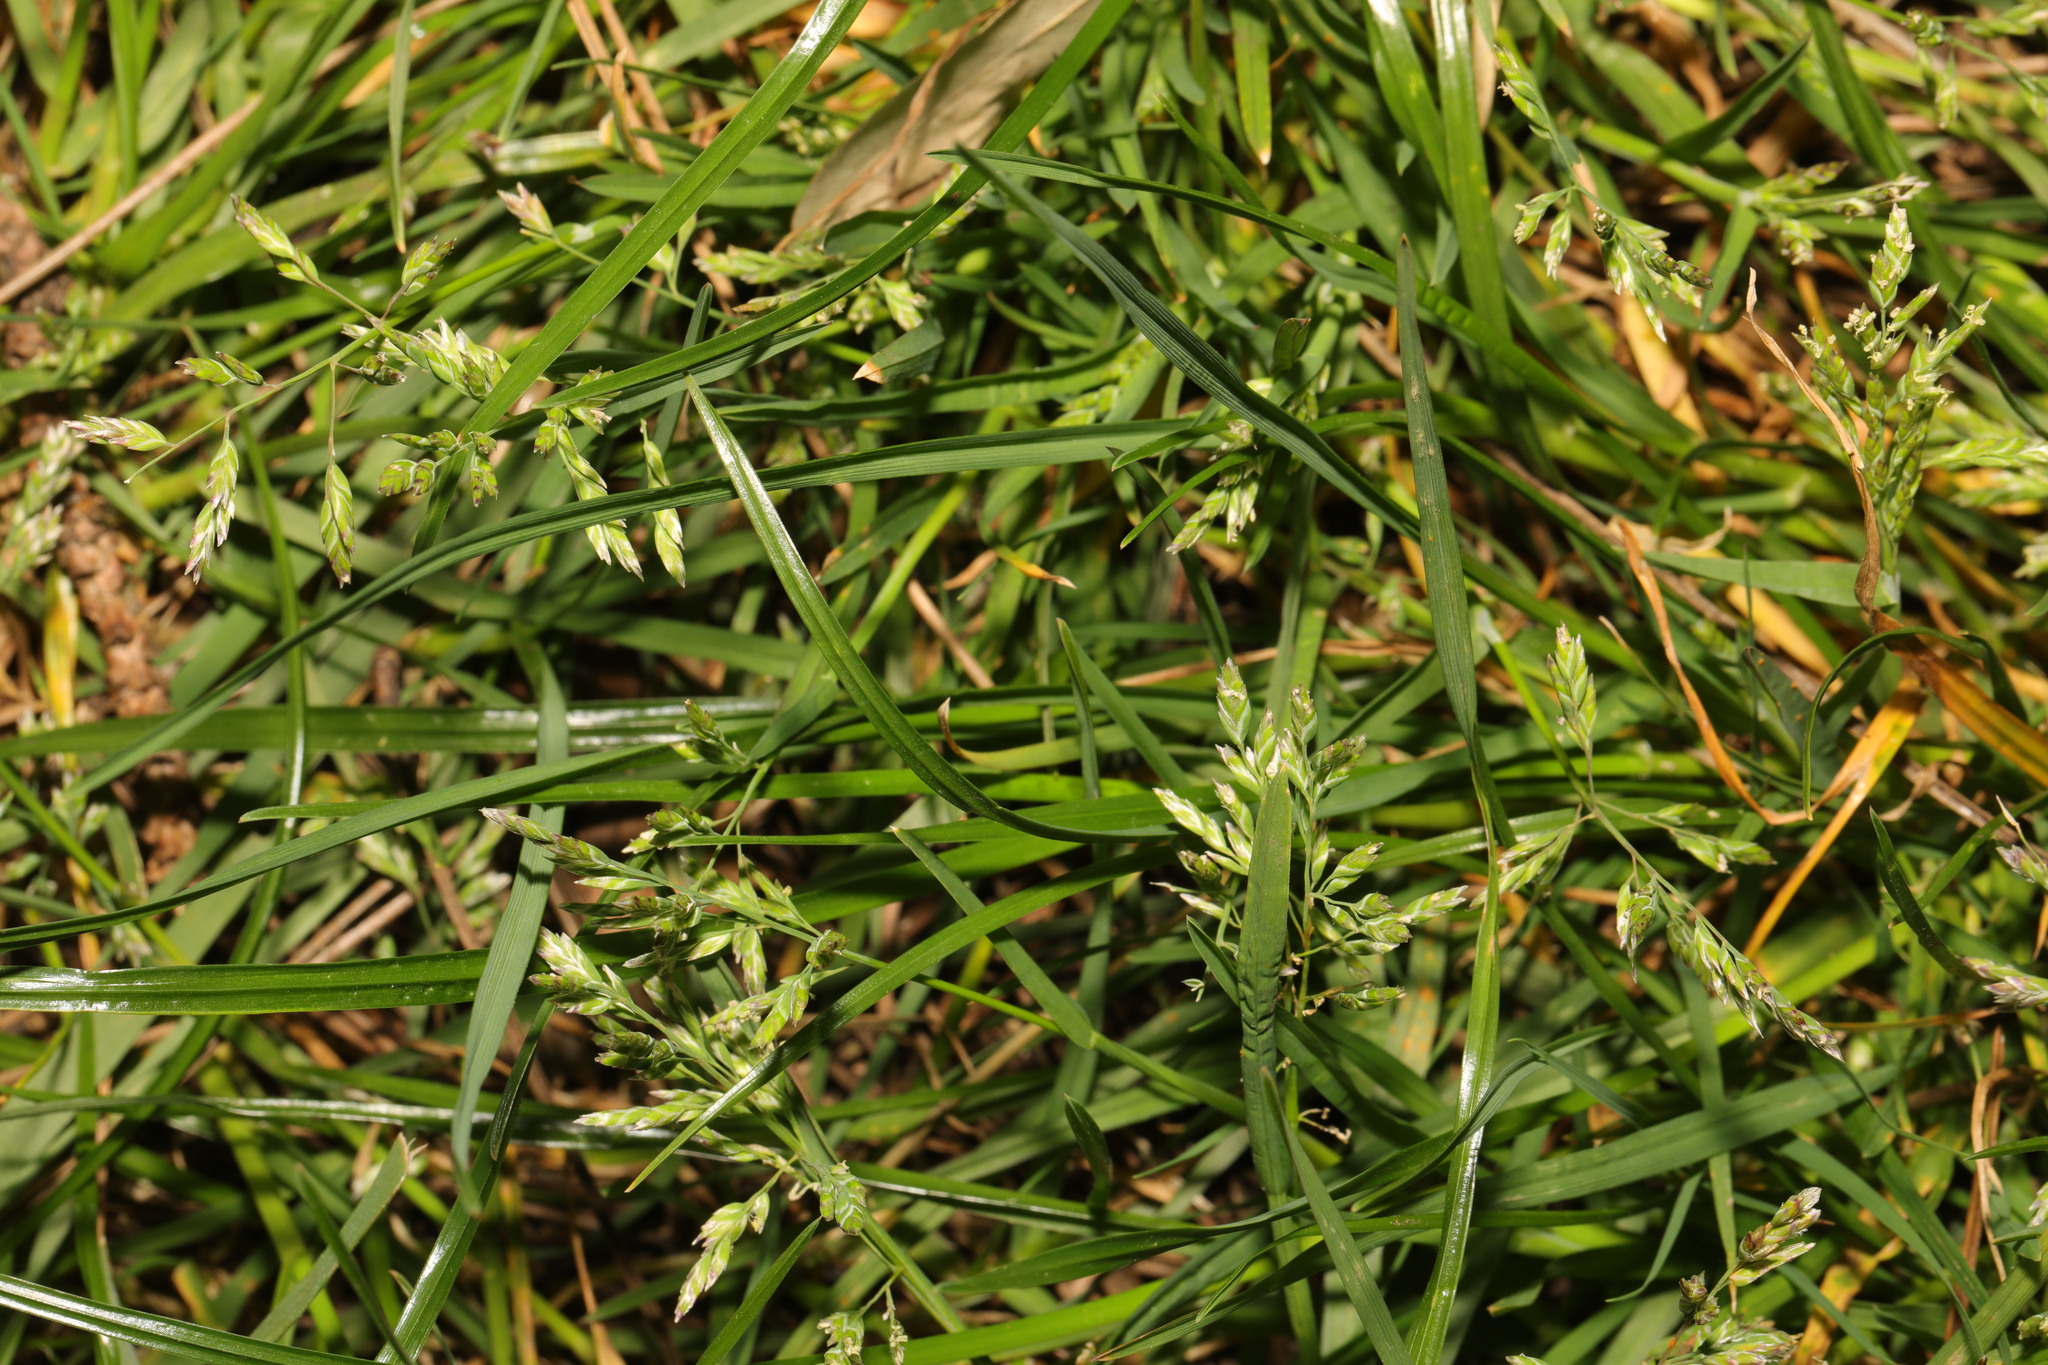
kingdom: Plantae
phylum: Tracheophyta
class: Liliopsida
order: Poales
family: Poaceae
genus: Poa
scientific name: Poa annua
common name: Annual bluegrass
